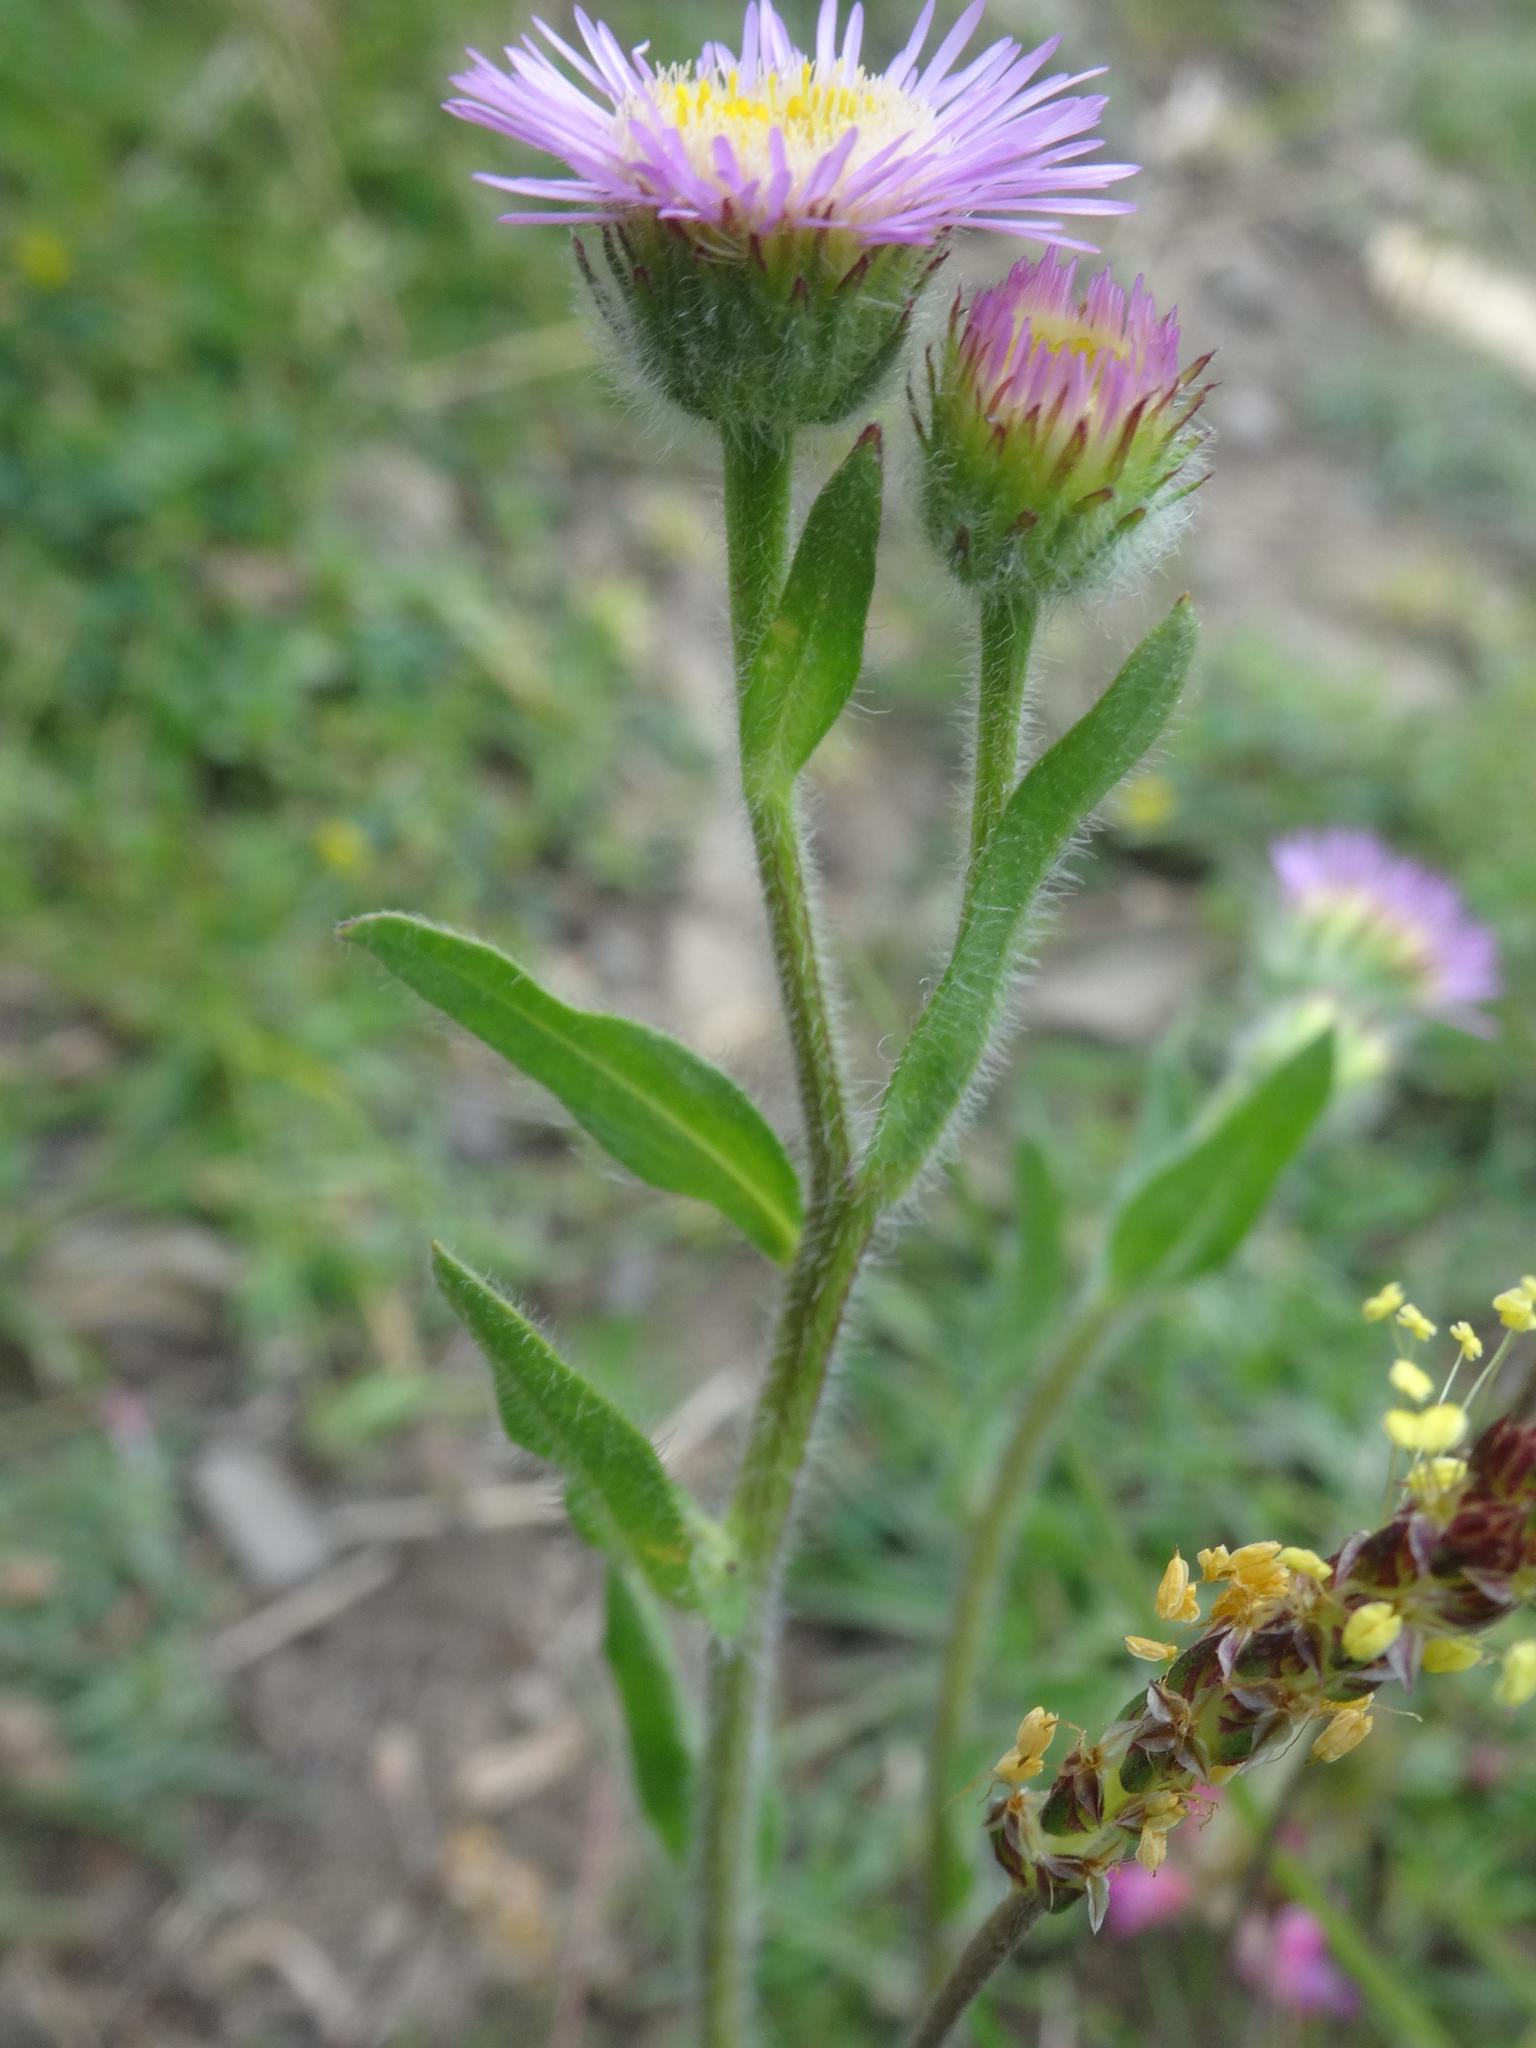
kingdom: Plantae
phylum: Tracheophyta
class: Magnoliopsida
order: Asterales
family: Asteraceae
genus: Erigeron
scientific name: Erigeron acris
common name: Blue fleabane
